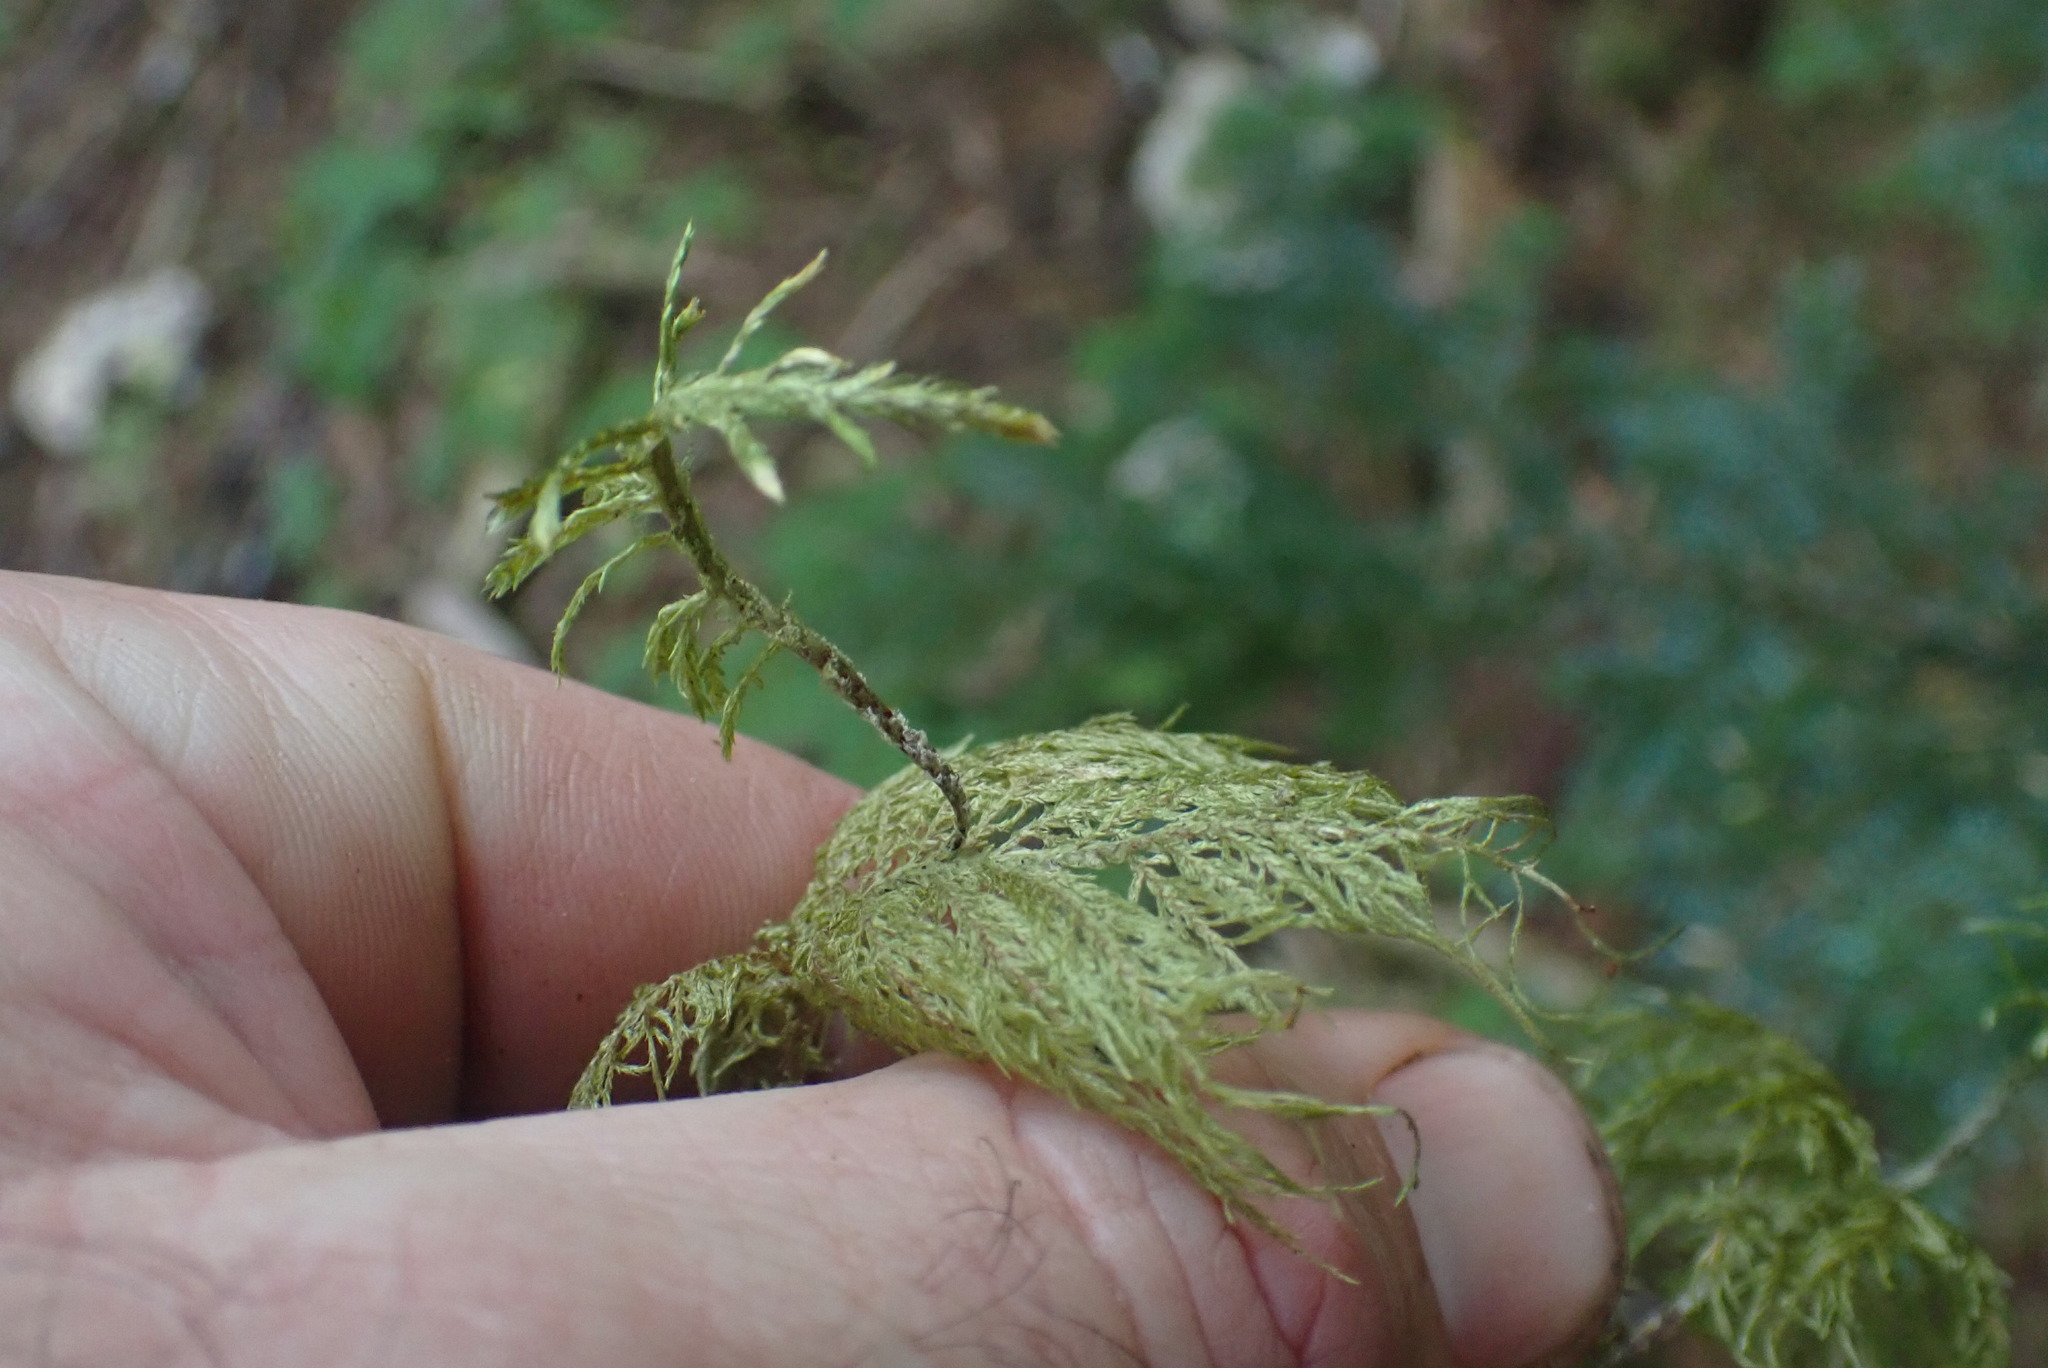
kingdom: Plantae
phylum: Bryophyta
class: Bryopsida
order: Hypnales
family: Hylocomiaceae
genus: Hylocomium
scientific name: Hylocomium splendens
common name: Stairstep moss
